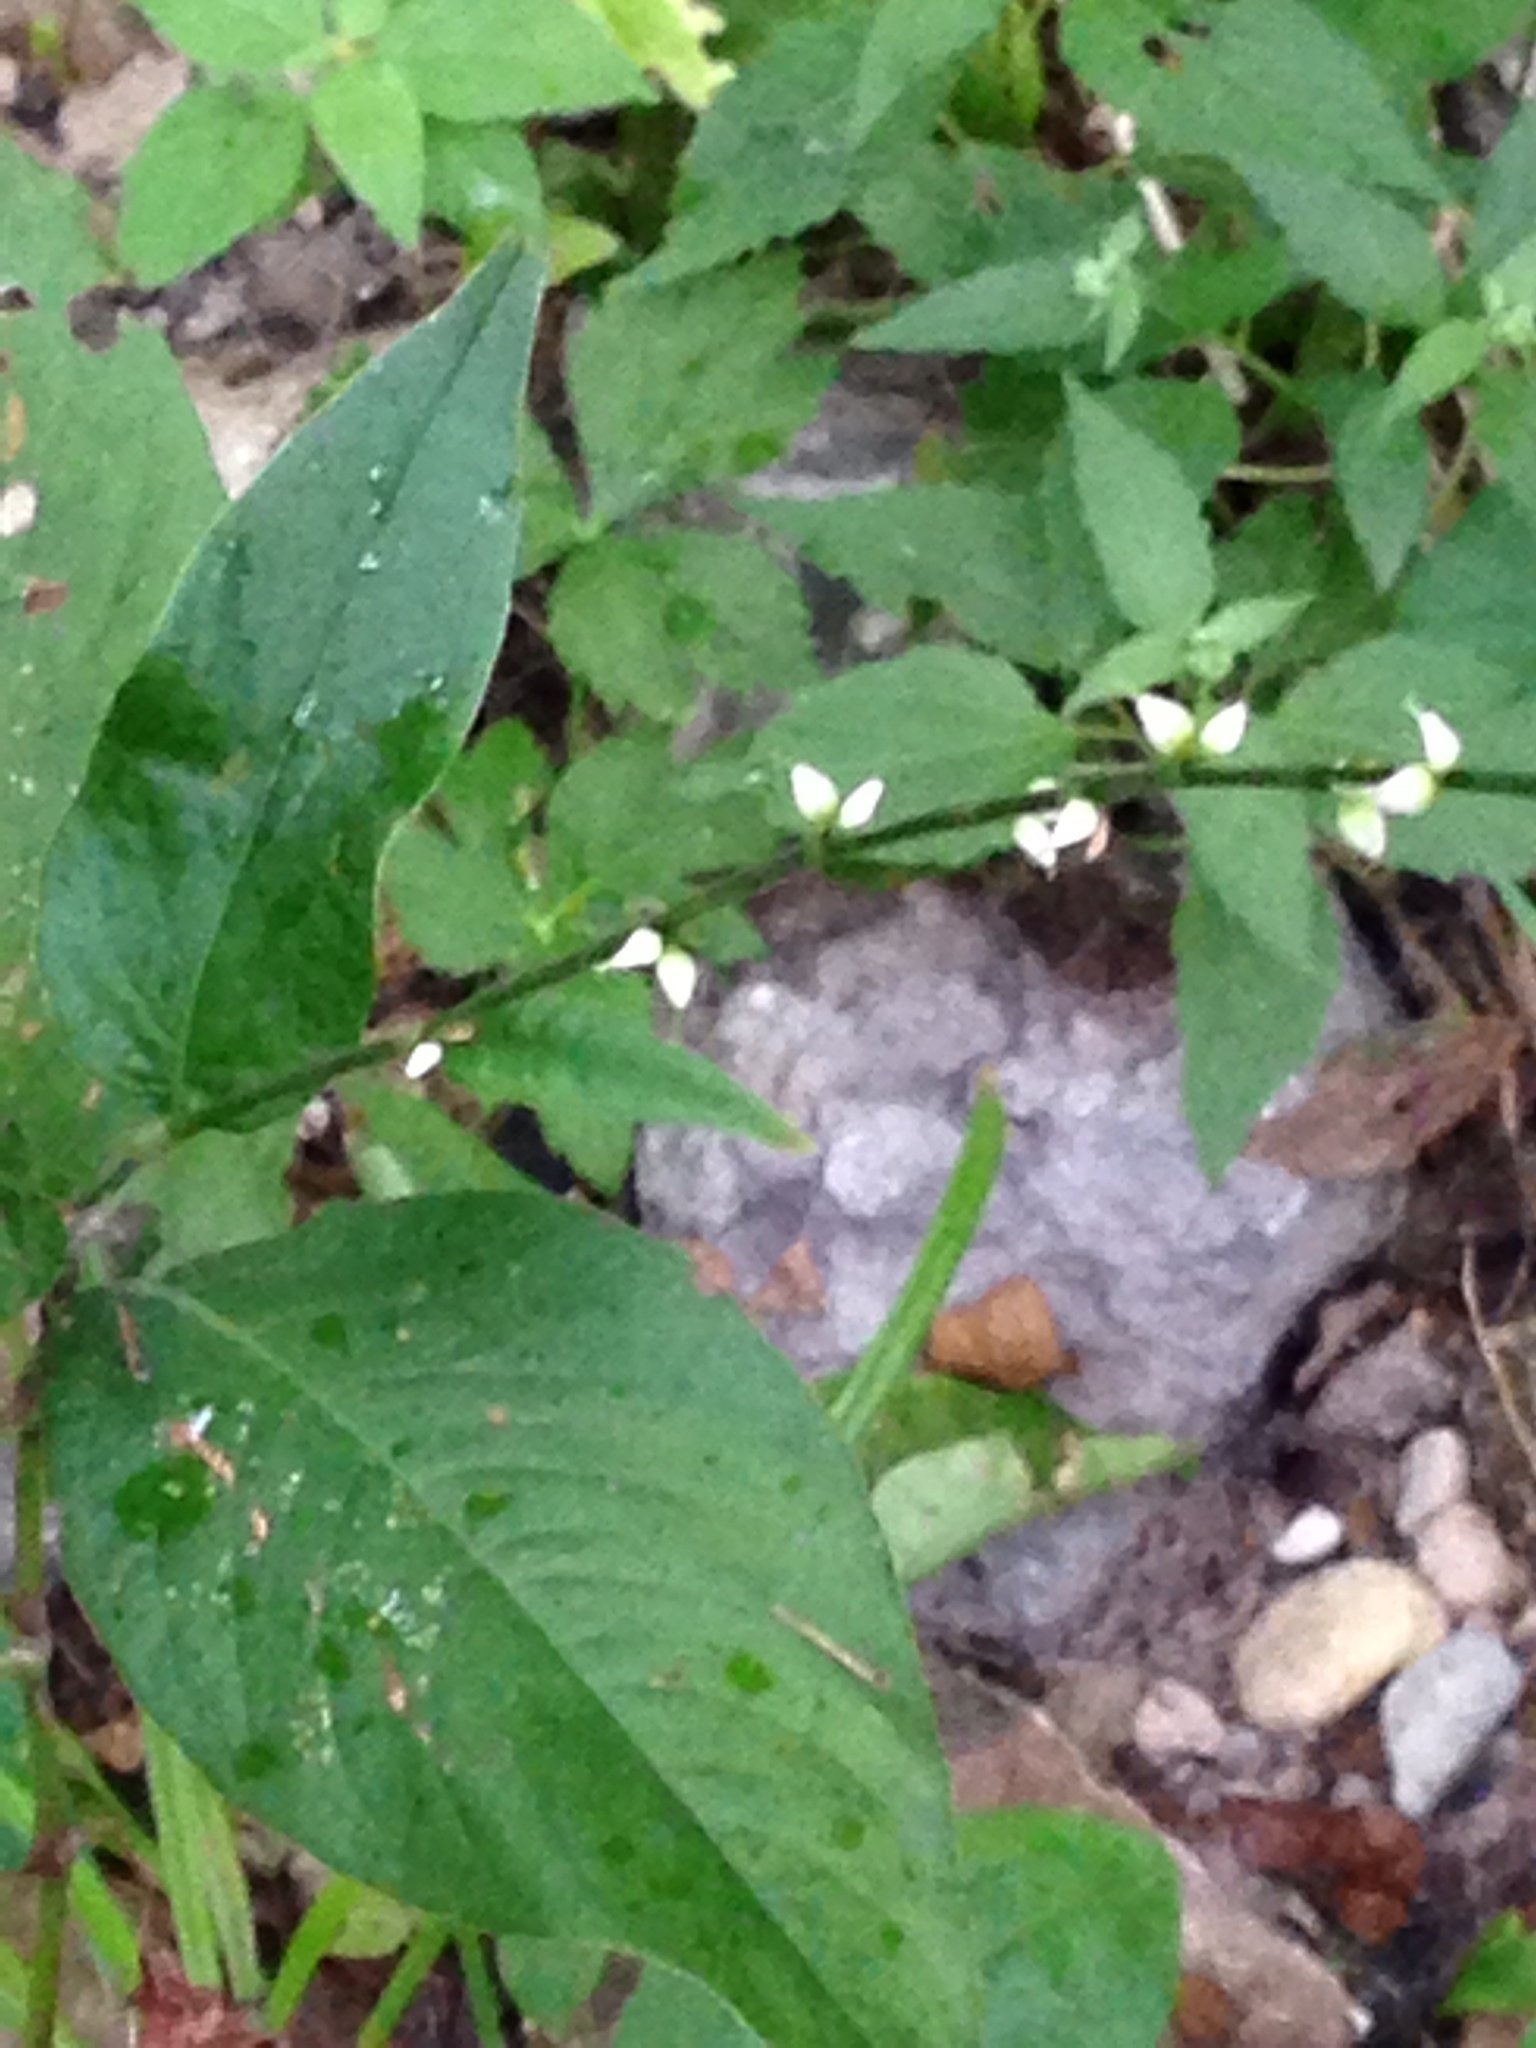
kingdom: Plantae
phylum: Tracheophyta
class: Magnoliopsida
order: Caryophyllales
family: Polygonaceae
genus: Persicaria
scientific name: Persicaria virginiana
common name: Jumpseed
